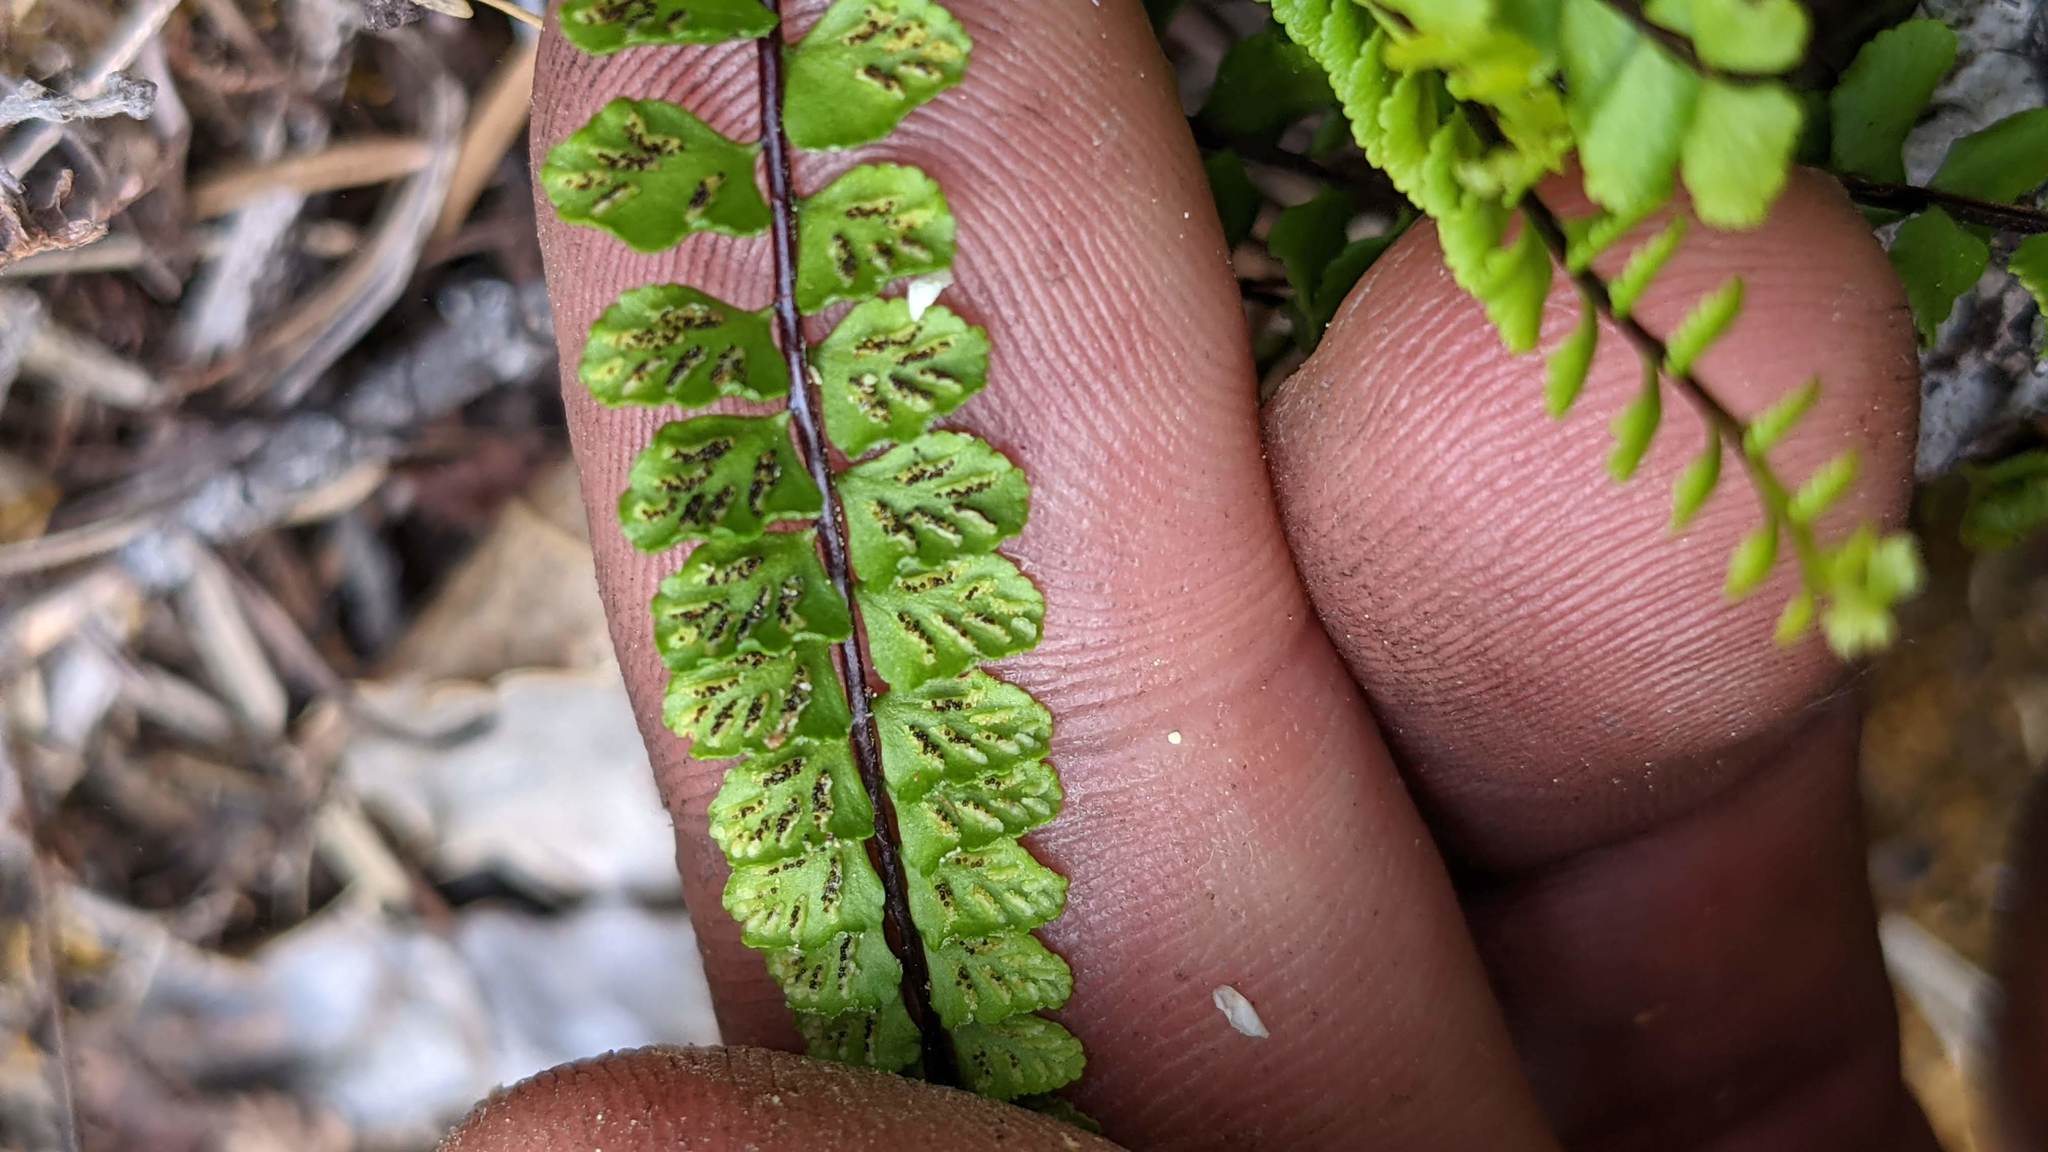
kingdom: Plantae
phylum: Tracheophyta
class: Polypodiopsida
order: Polypodiales
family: Aspleniaceae
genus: Asplenium
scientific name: Asplenium trichomanes
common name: Maidenhair spleenwort
